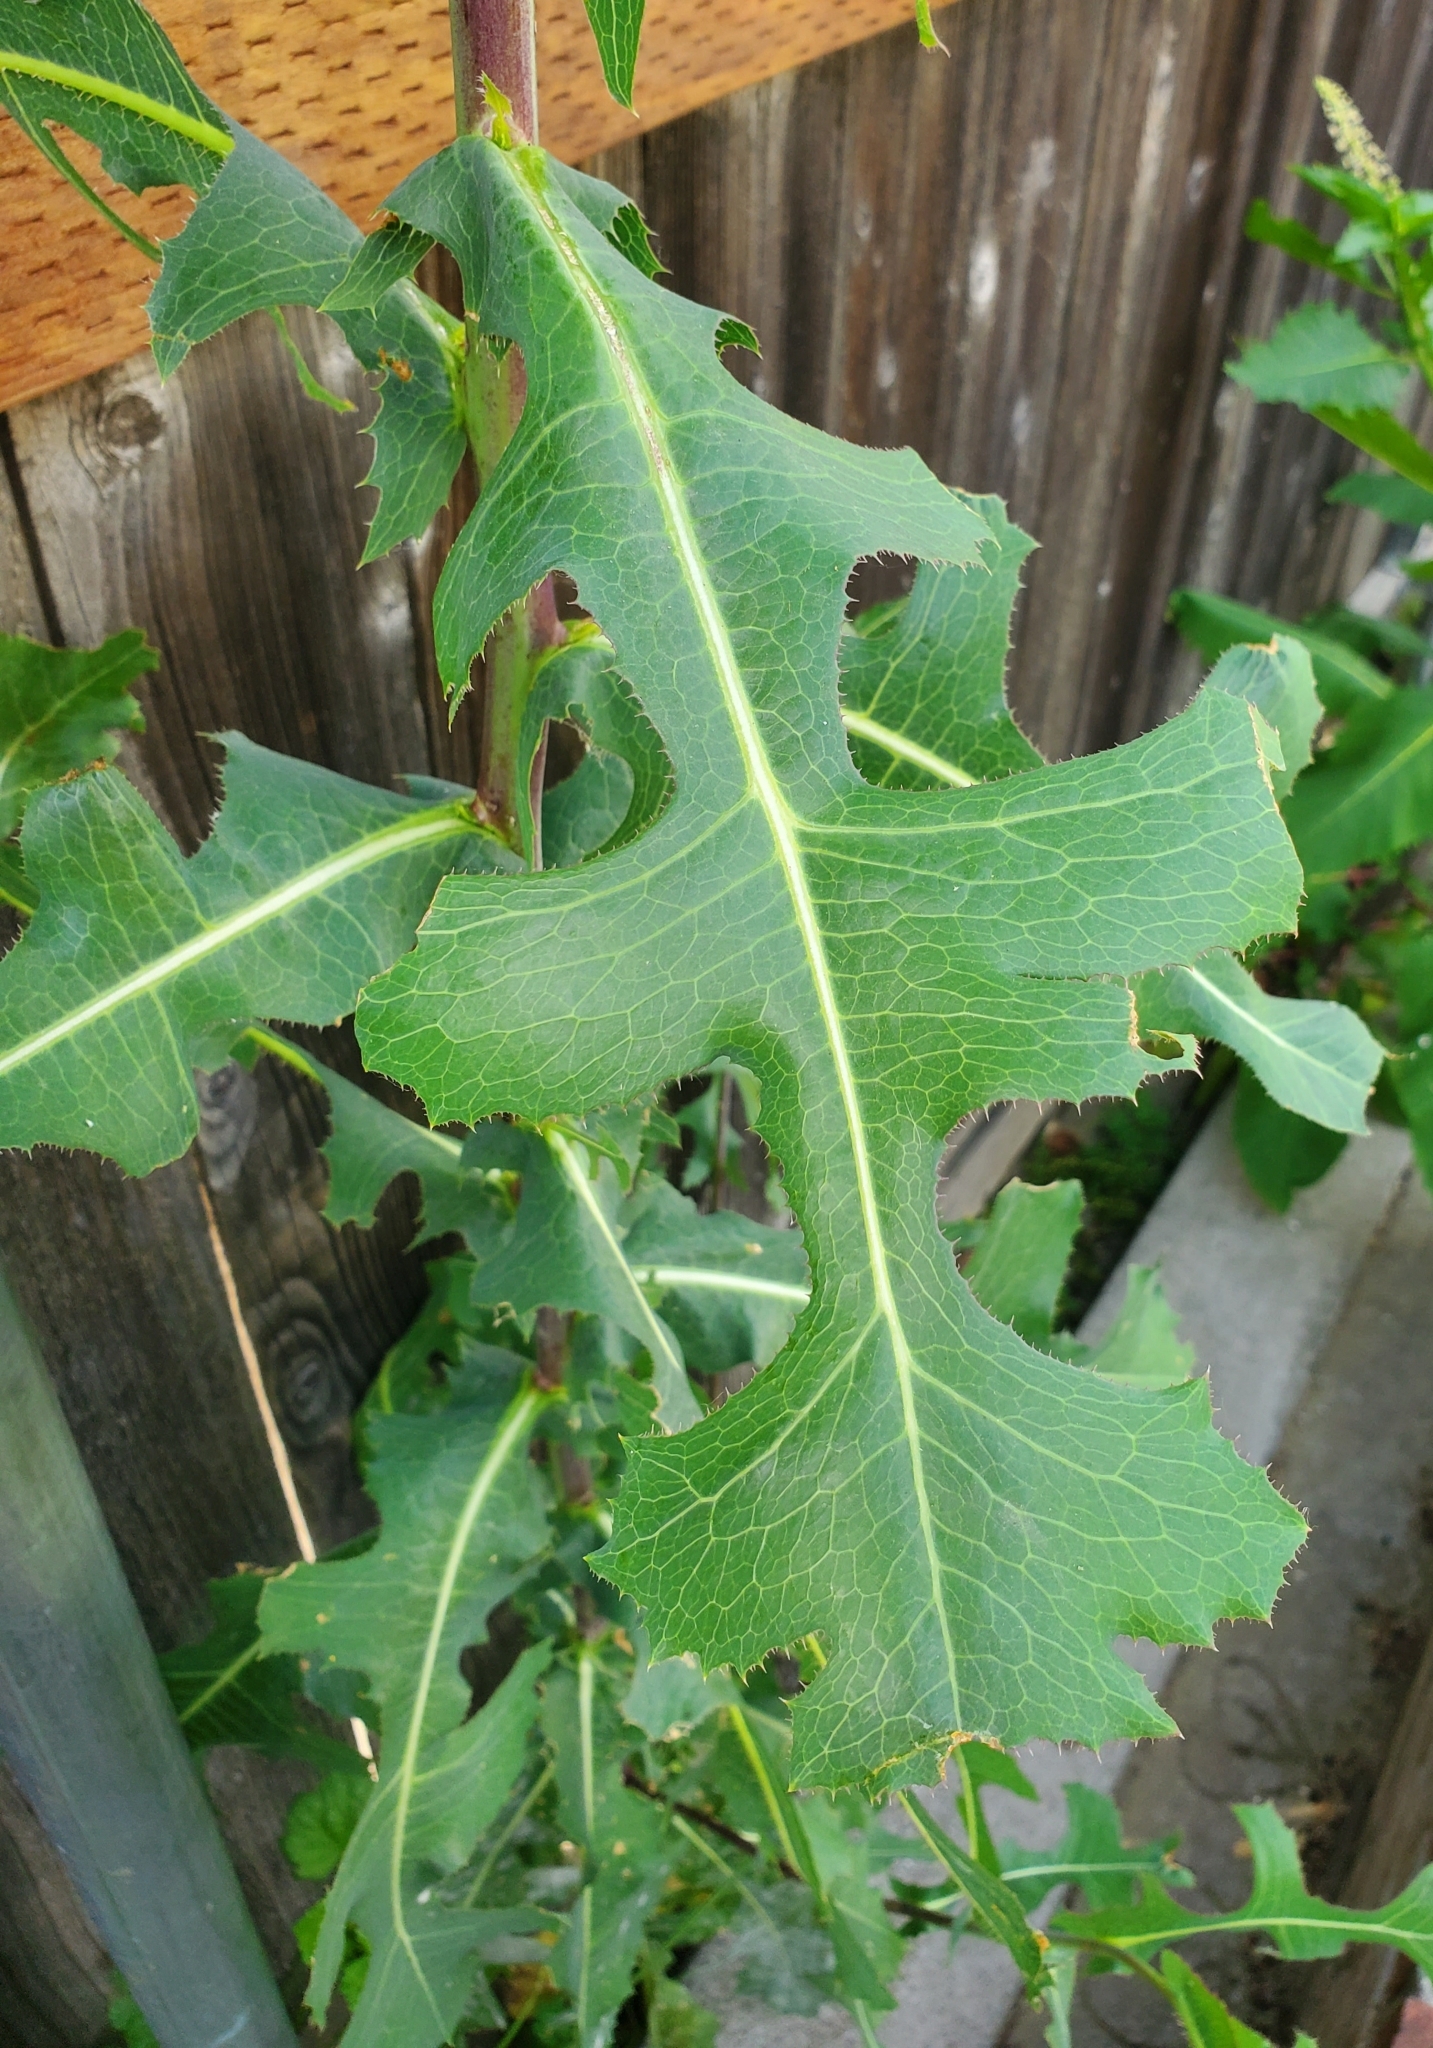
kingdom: Plantae
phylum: Tracheophyta
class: Magnoliopsida
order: Asterales
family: Asteraceae
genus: Lactuca
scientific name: Lactuca serriola
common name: Prickly lettuce
